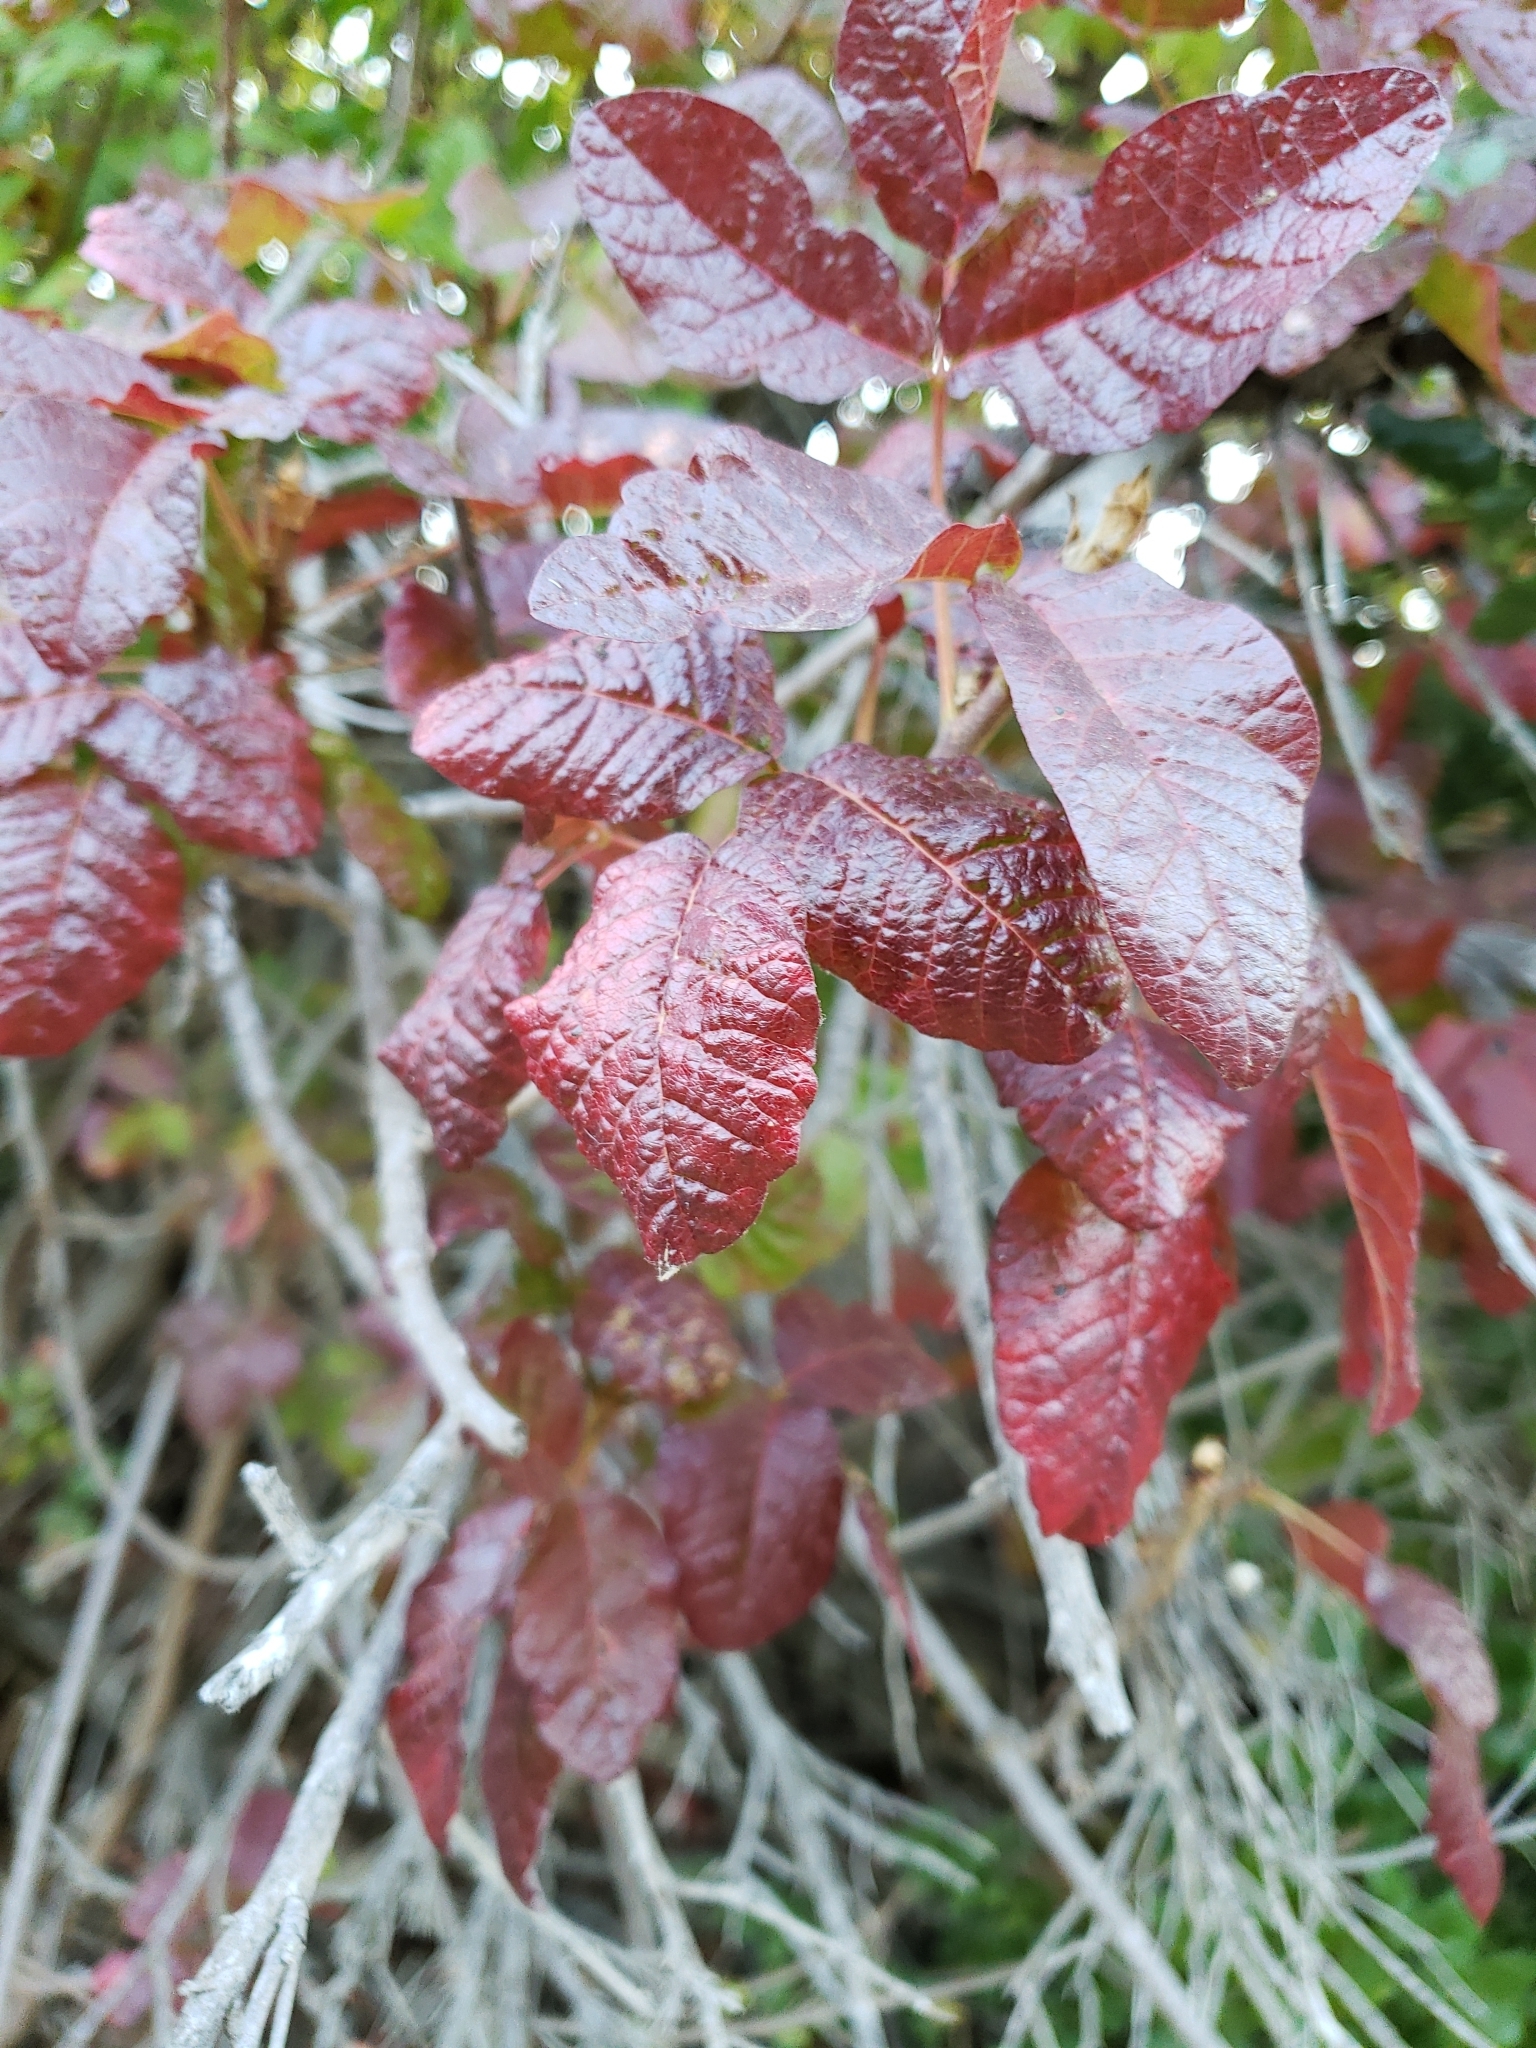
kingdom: Plantae
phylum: Tracheophyta
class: Magnoliopsida
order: Sapindales
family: Anacardiaceae
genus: Toxicodendron
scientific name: Toxicodendron diversilobum
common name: Pacific poison-oak
